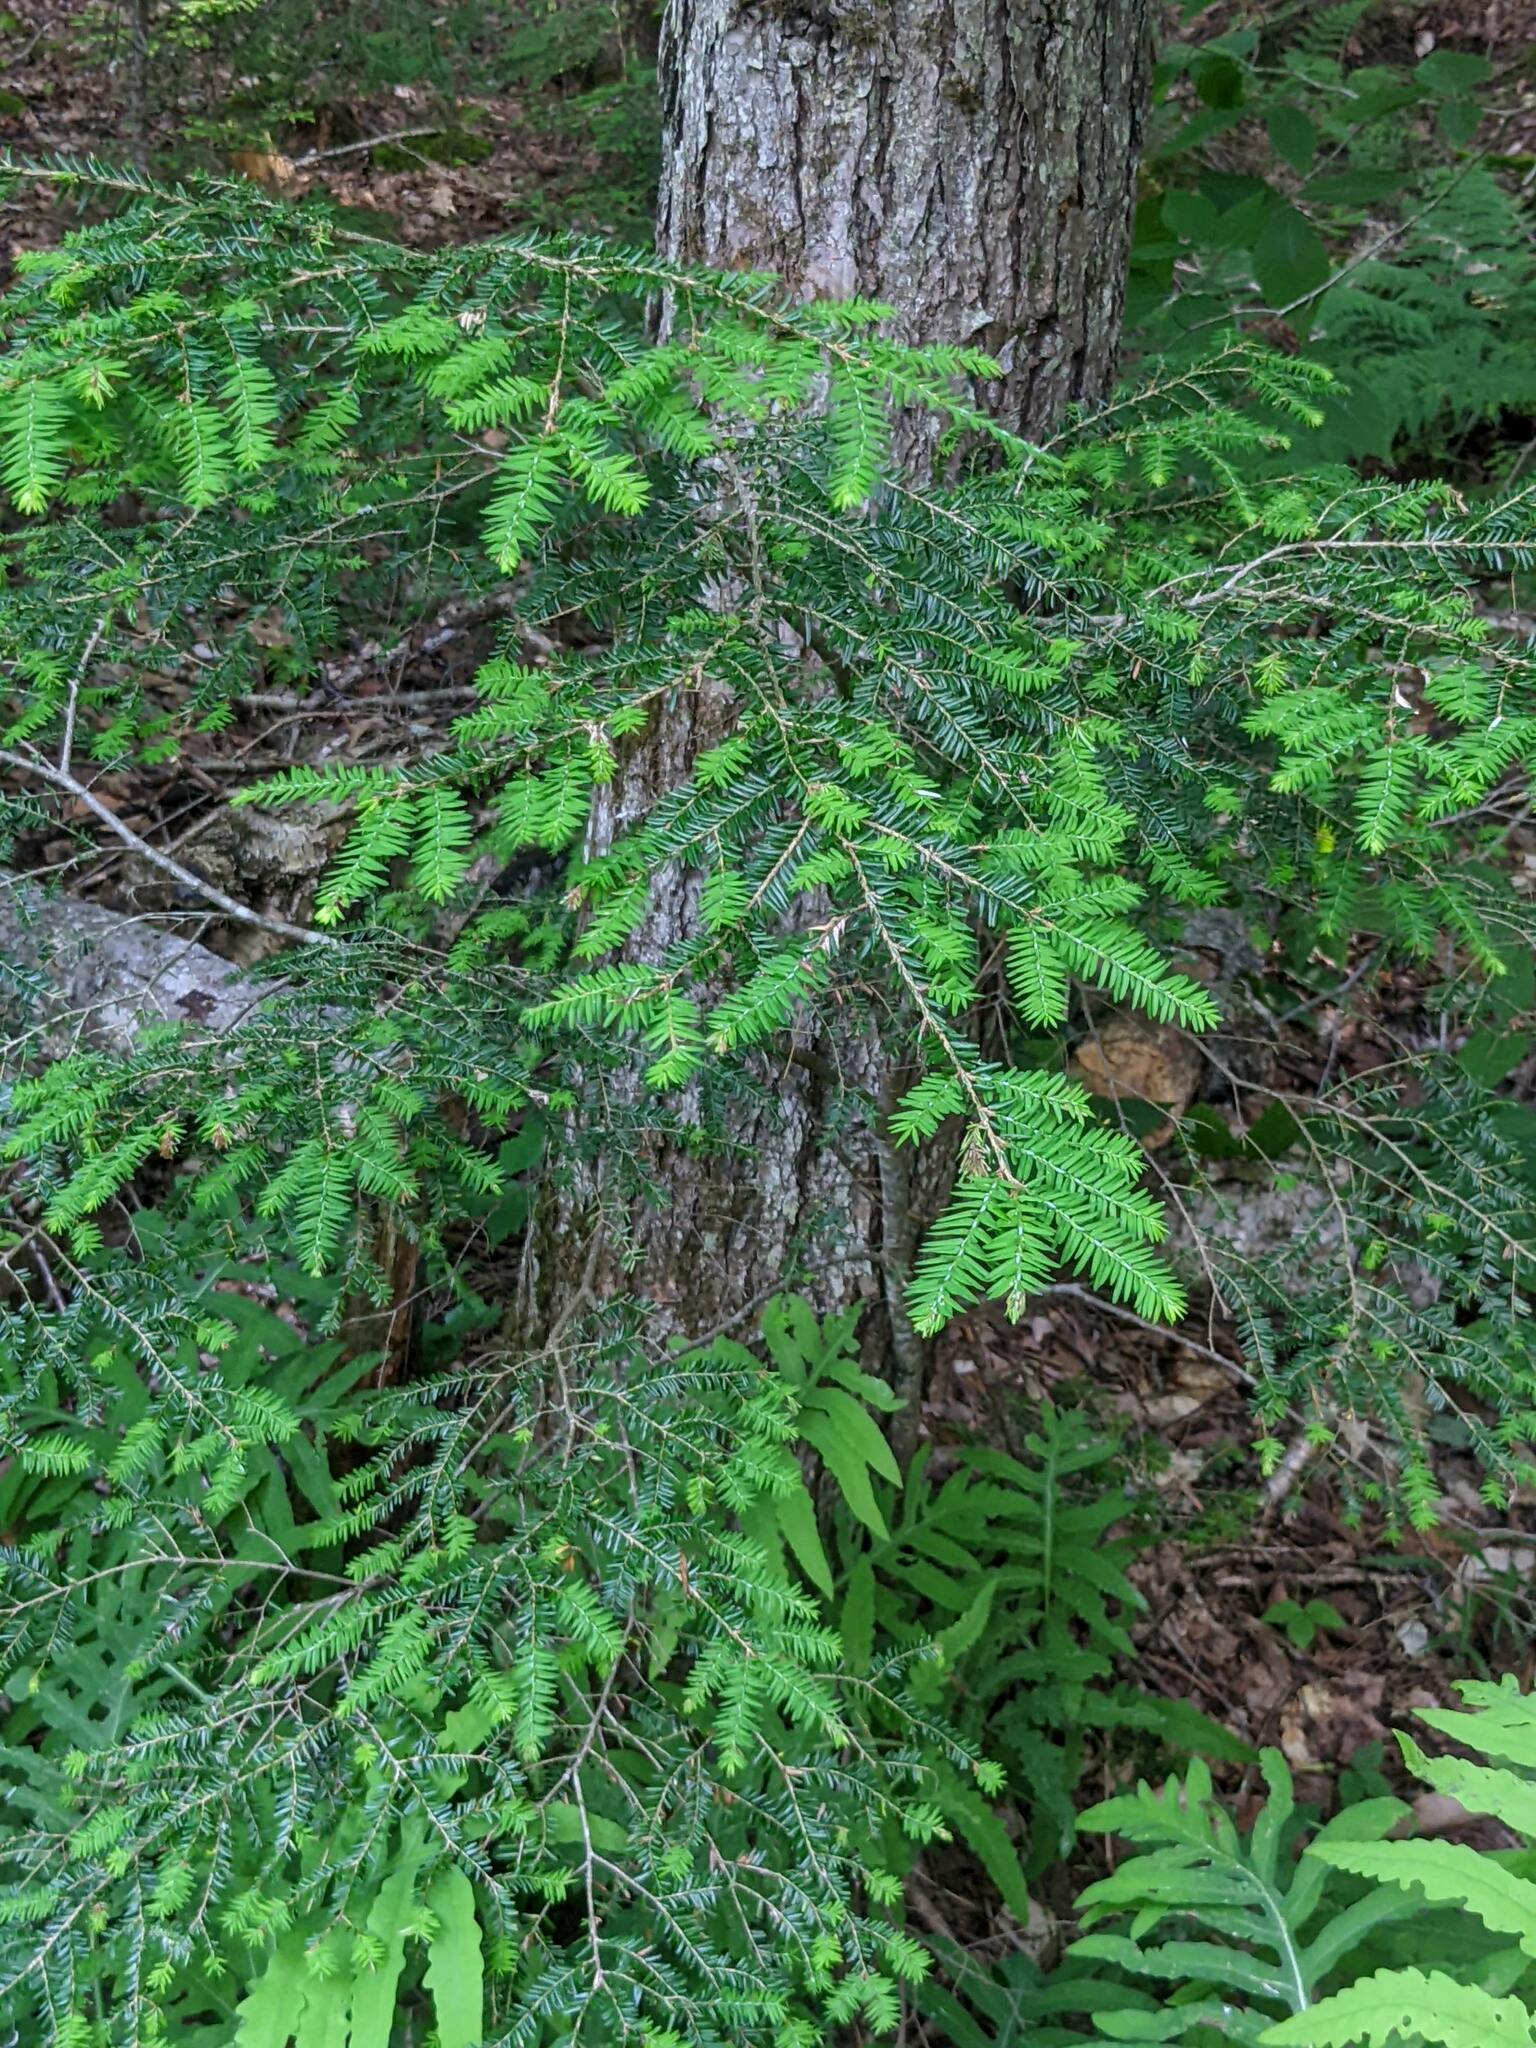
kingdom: Plantae
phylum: Tracheophyta
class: Pinopsida
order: Pinales
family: Pinaceae
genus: Tsuga
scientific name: Tsuga canadensis
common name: Eastern hemlock
